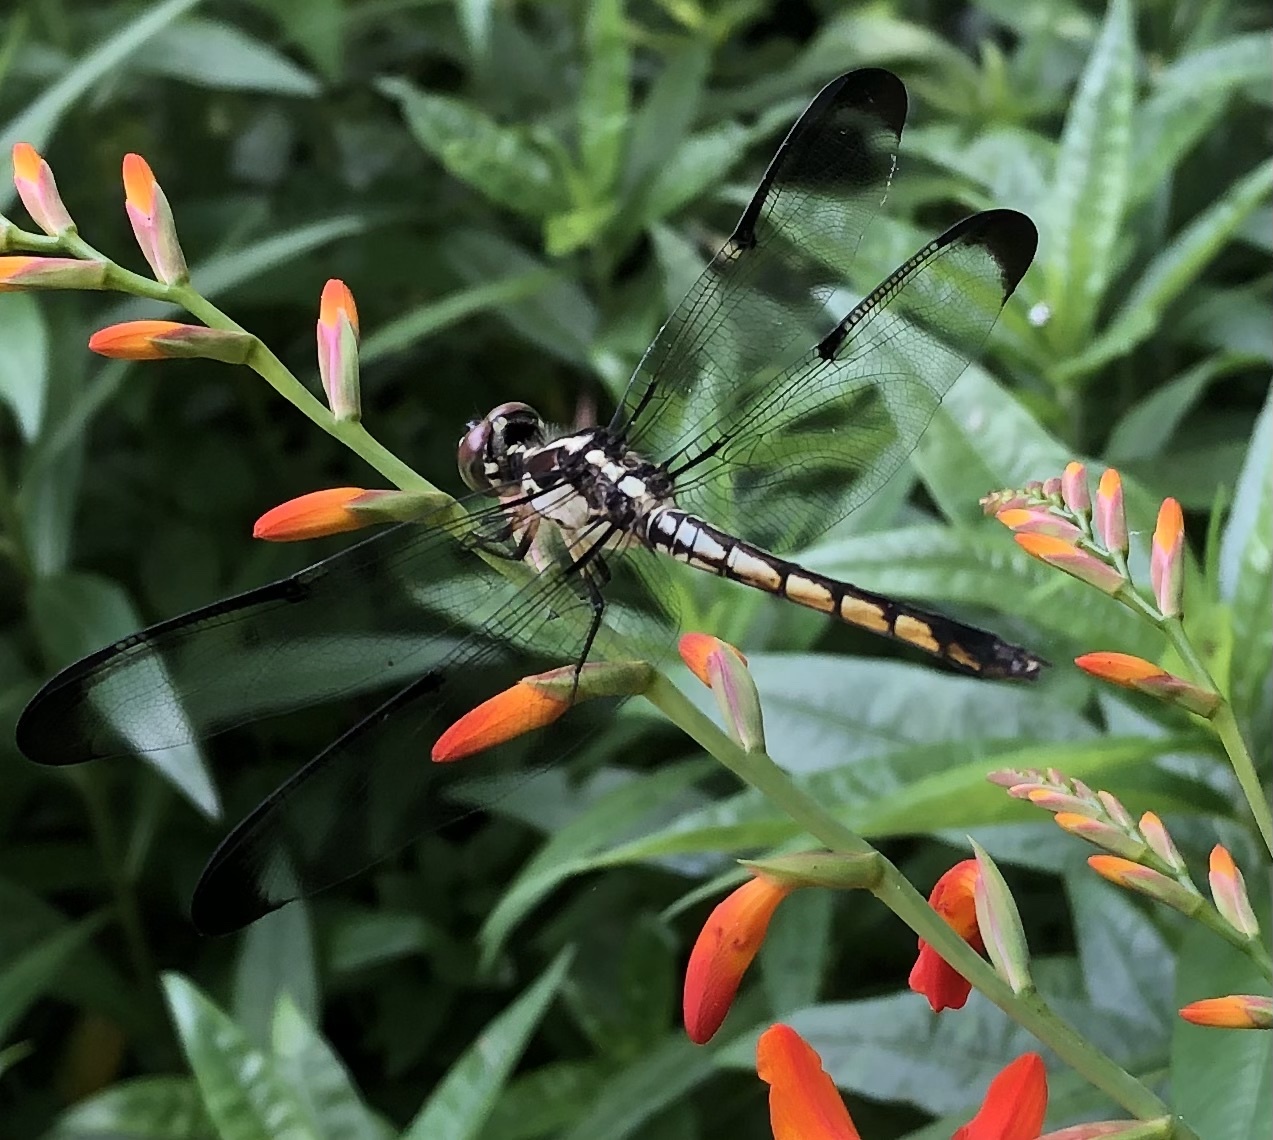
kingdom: Animalia
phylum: Arthropoda
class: Insecta
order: Odonata
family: Libellulidae
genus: Libellula
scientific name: Libellula vibrans
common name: Great blue skimmer
